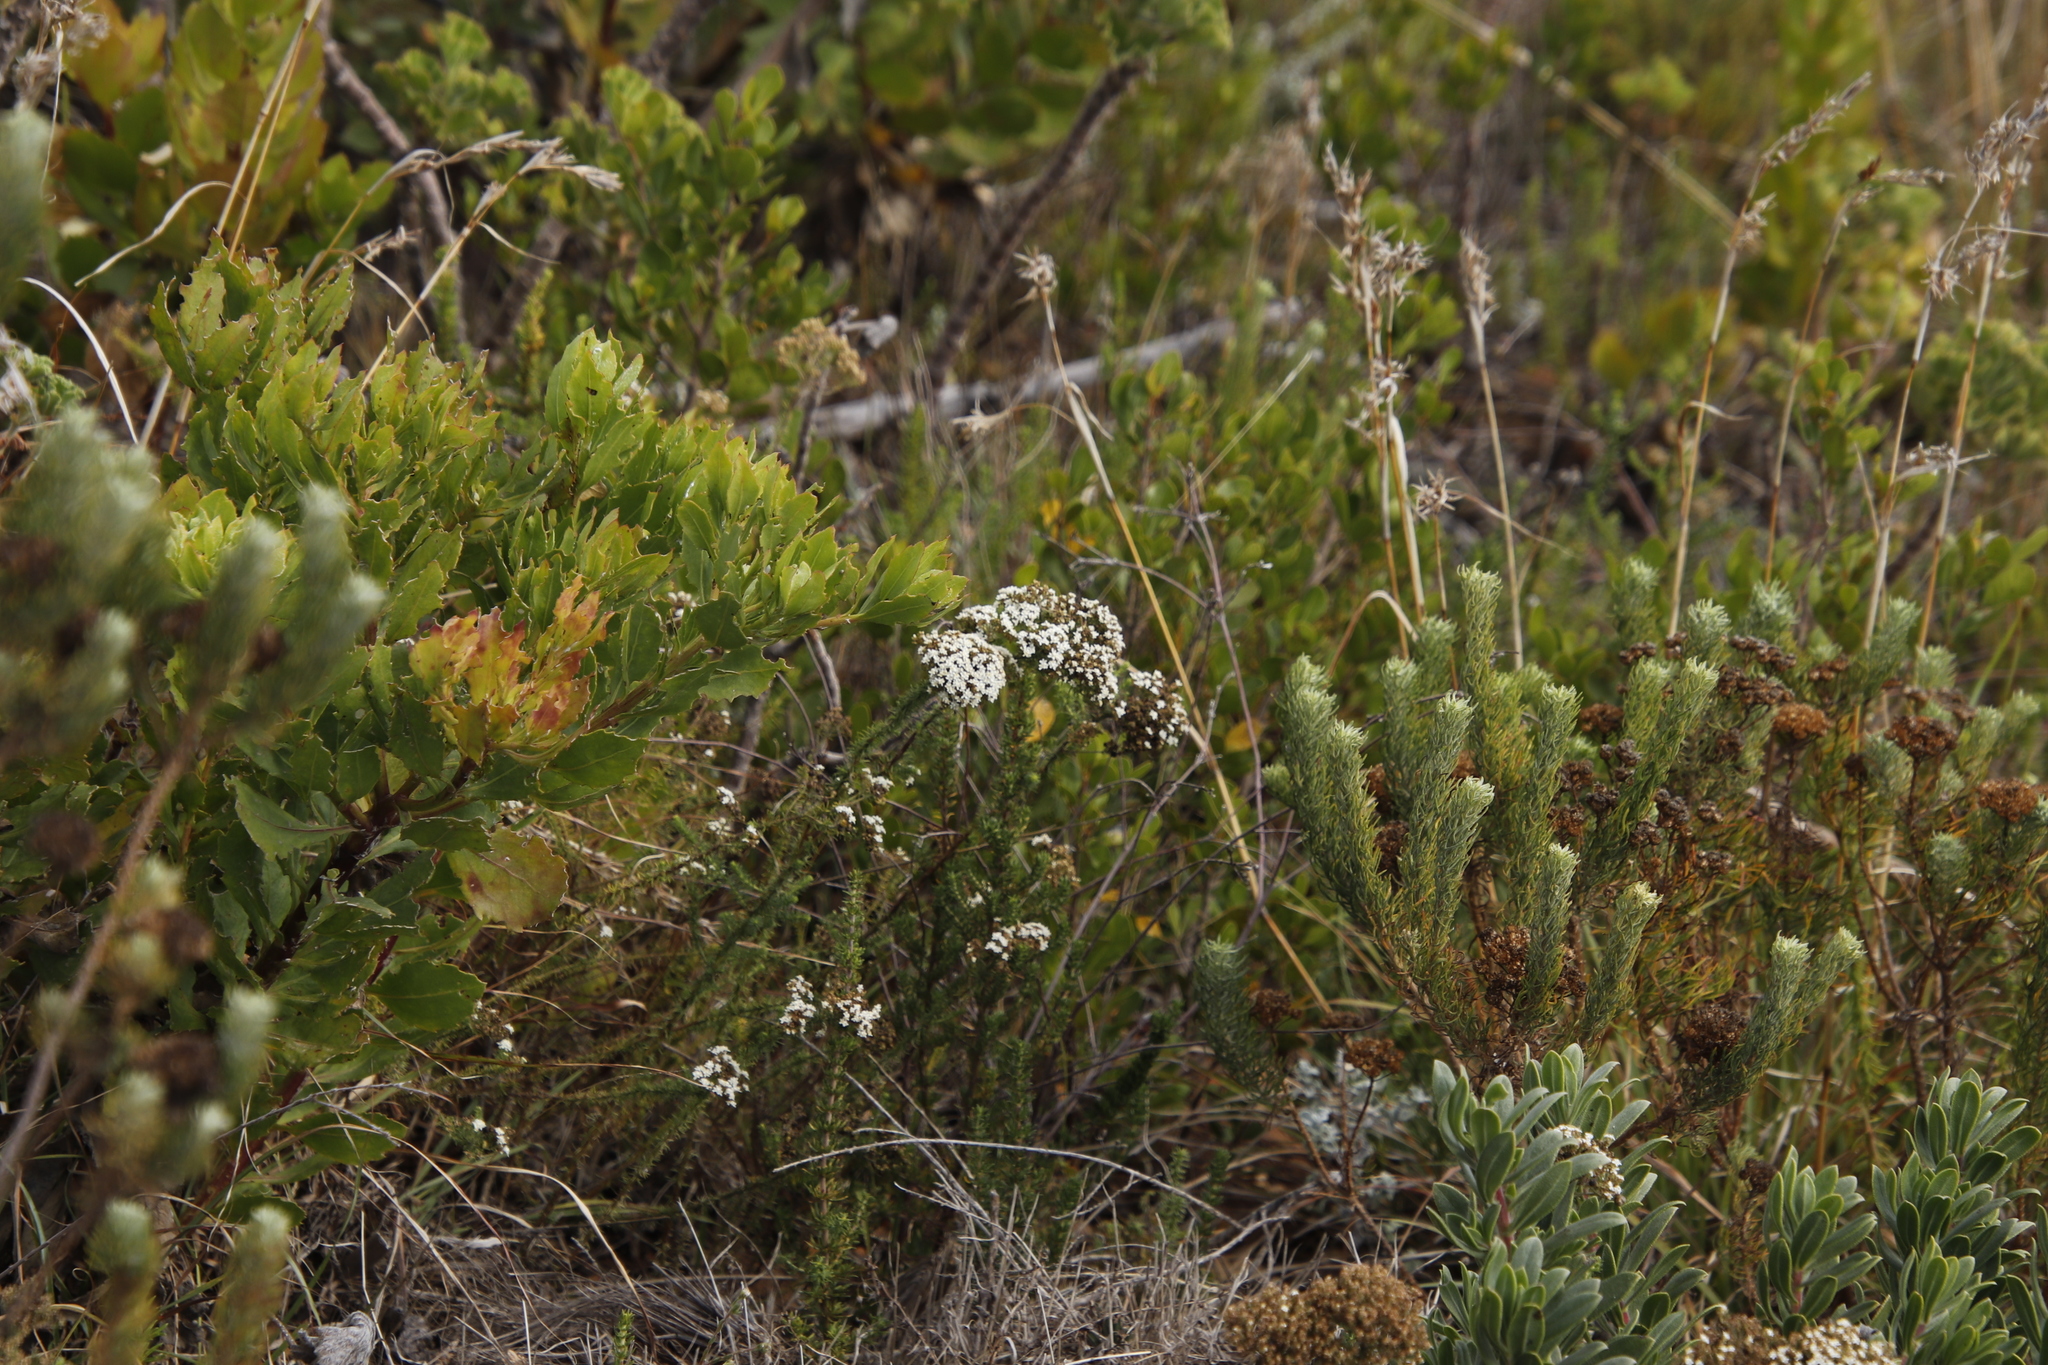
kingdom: Plantae
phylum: Tracheophyta
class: Magnoliopsida
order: Lamiales
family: Scrophulariaceae
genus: Selago
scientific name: Selago corymbosa
